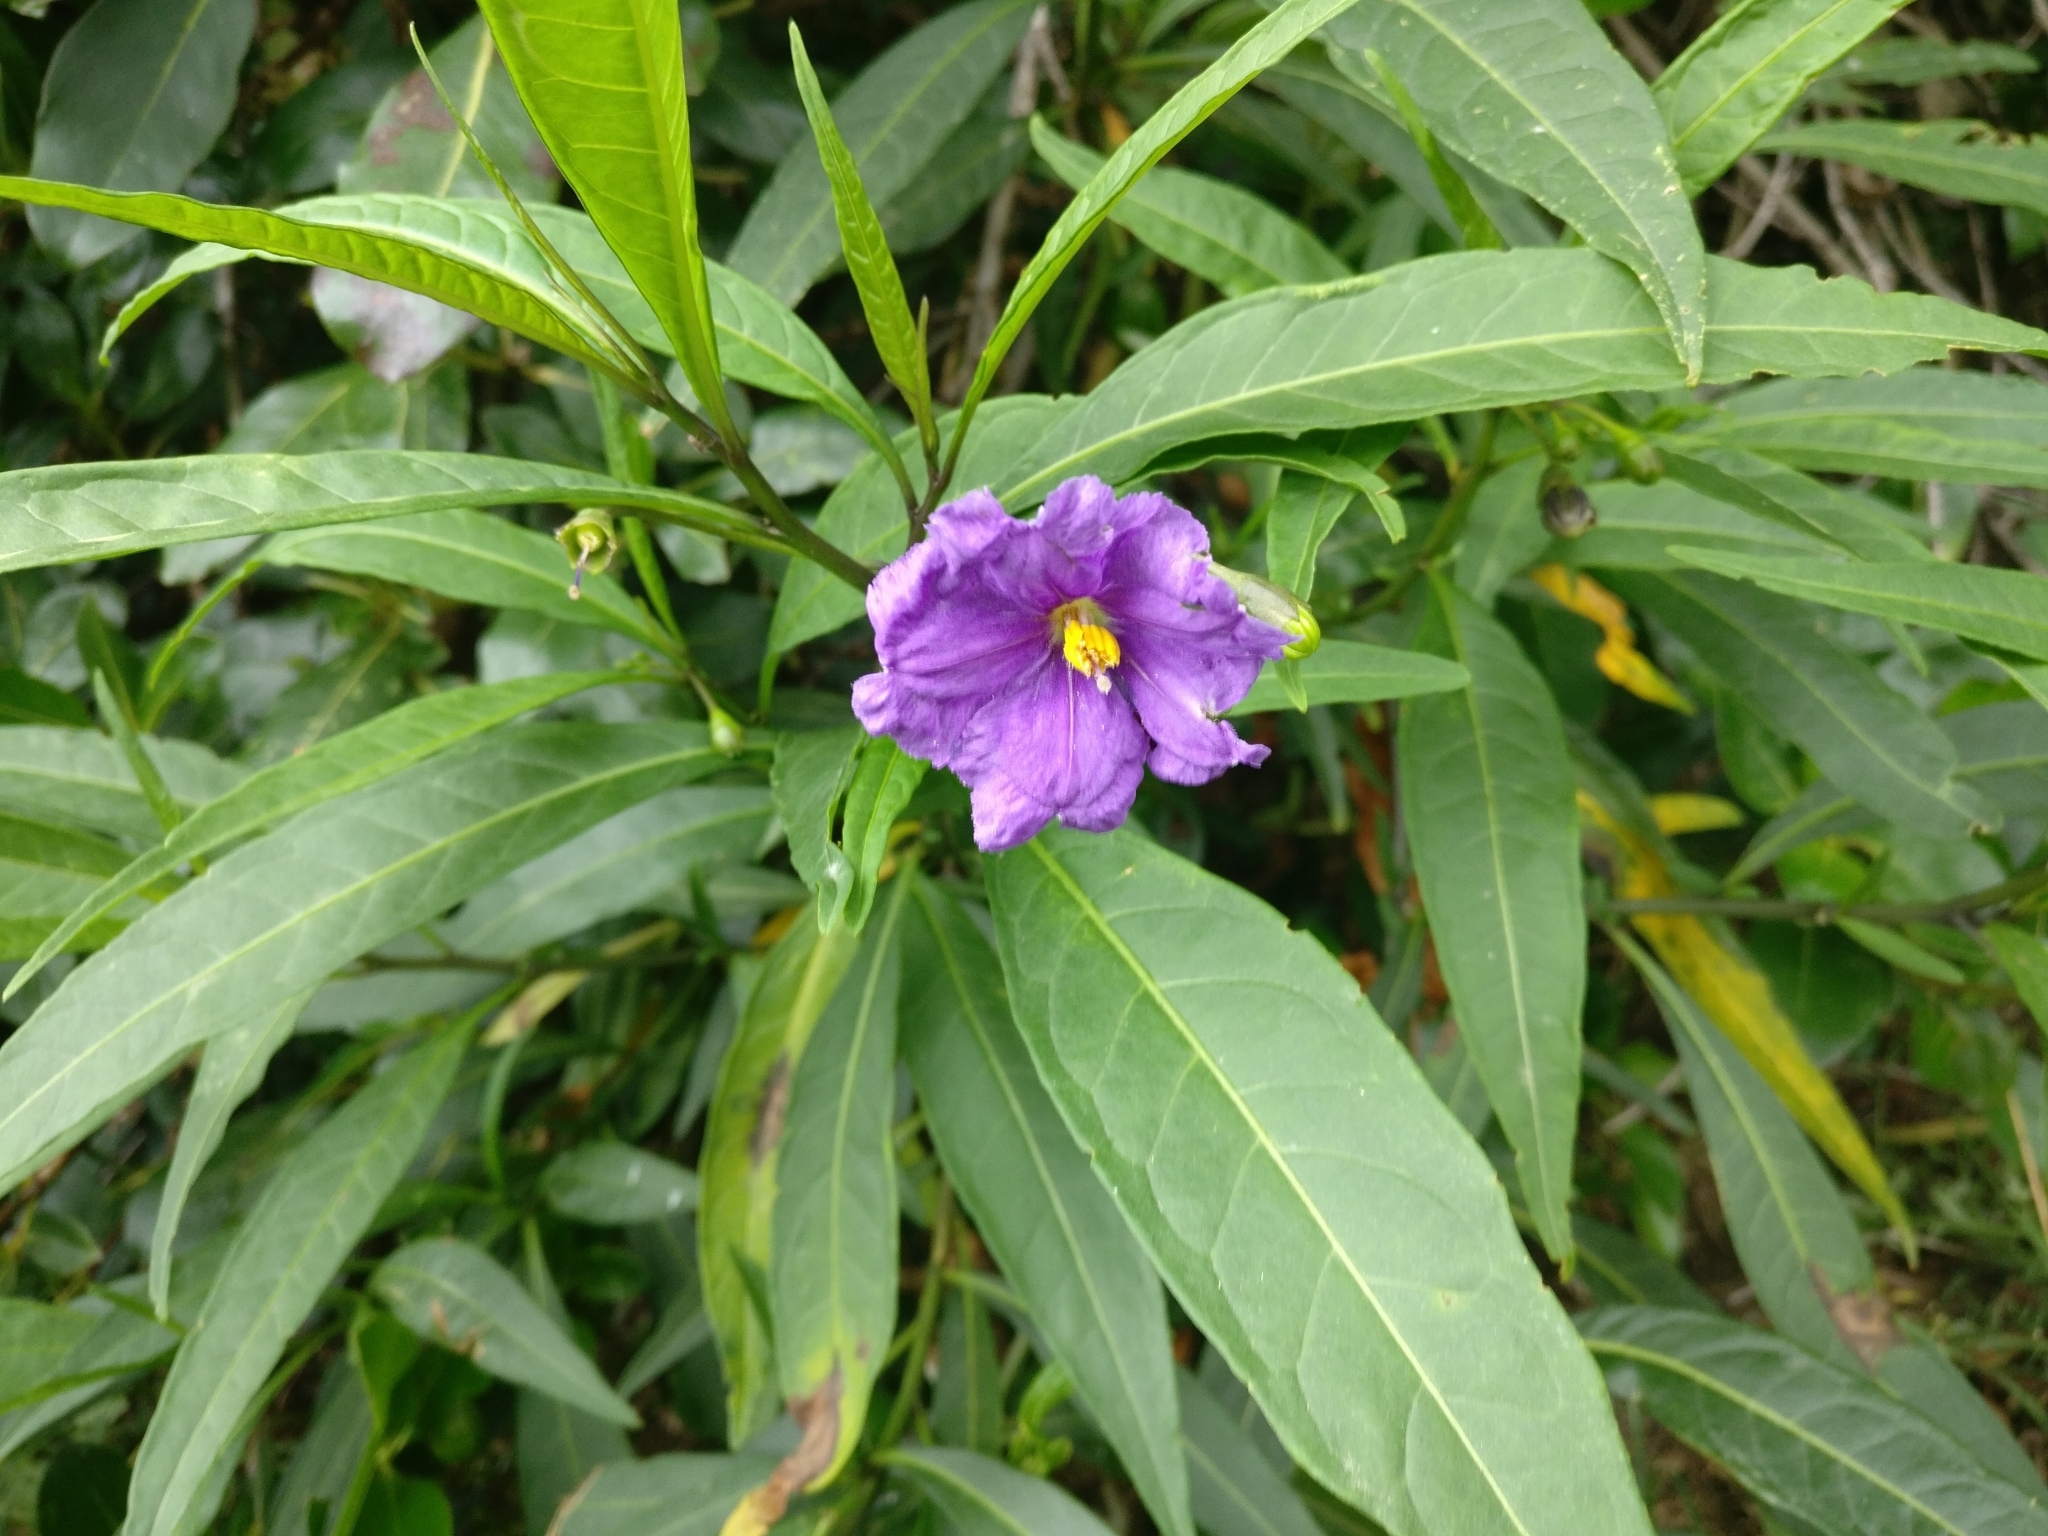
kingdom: Plantae
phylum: Tracheophyta
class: Magnoliopsida
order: Solanales
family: Solanaceae
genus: Solanum
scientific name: Solanum laciniatum
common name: Kangaroo-apple
